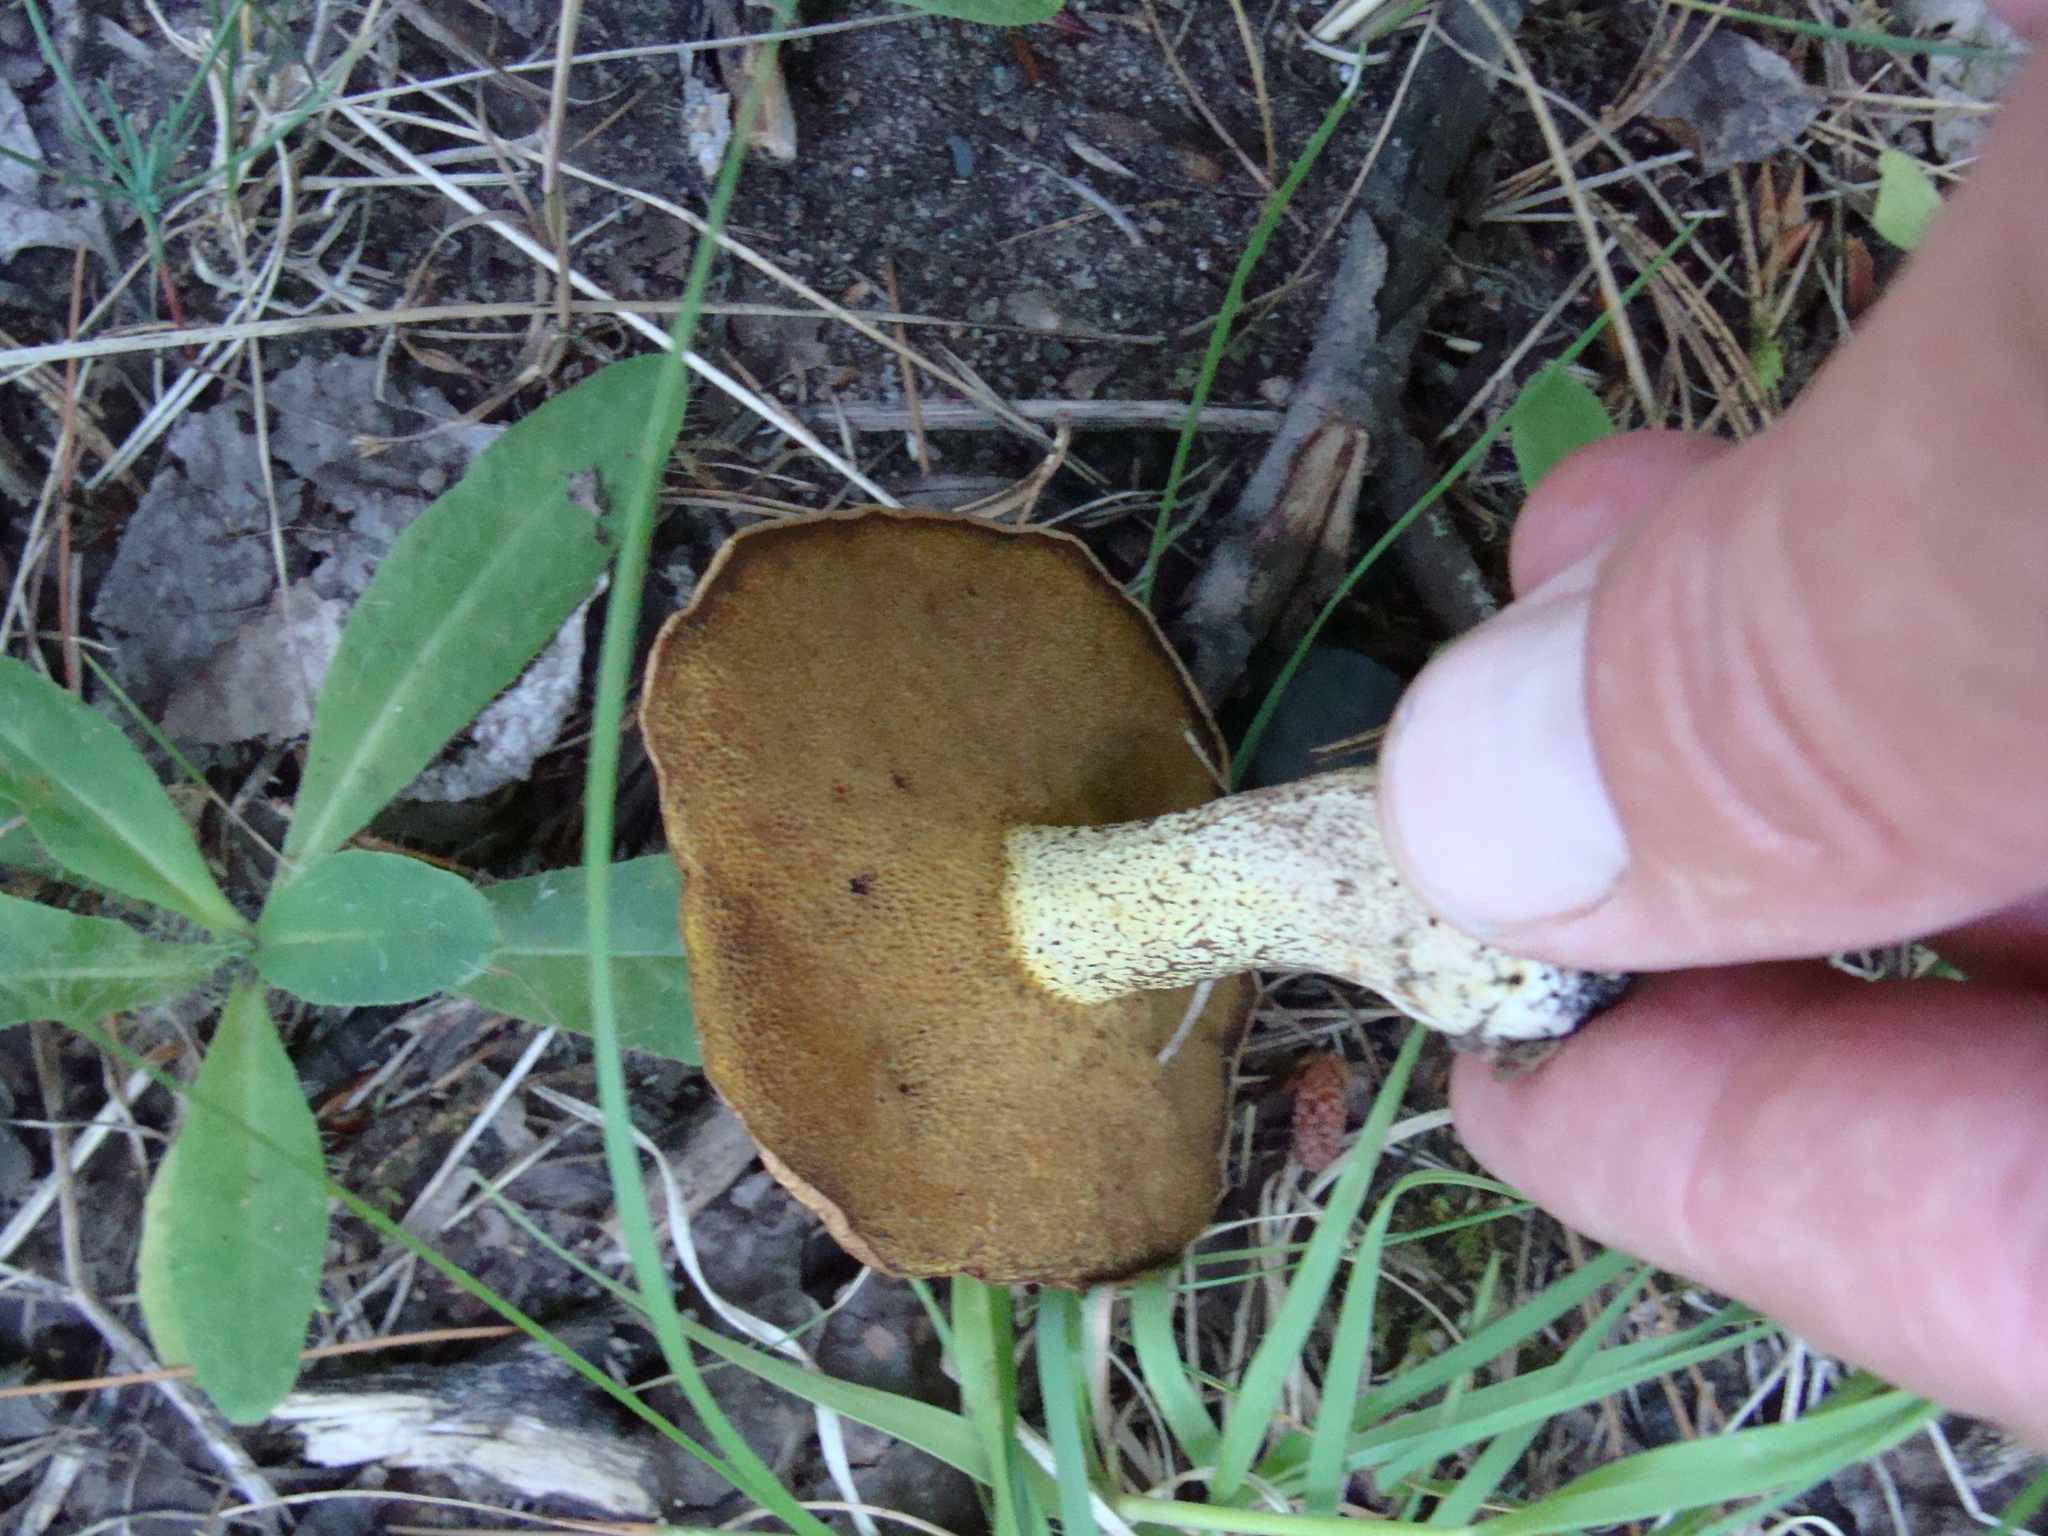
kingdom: Fungi
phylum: Basidiomycota
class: Agaricomycetes
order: Boletales
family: Suillaceae
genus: Suillus
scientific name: Suillus granulatus
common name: Weeping bolete
